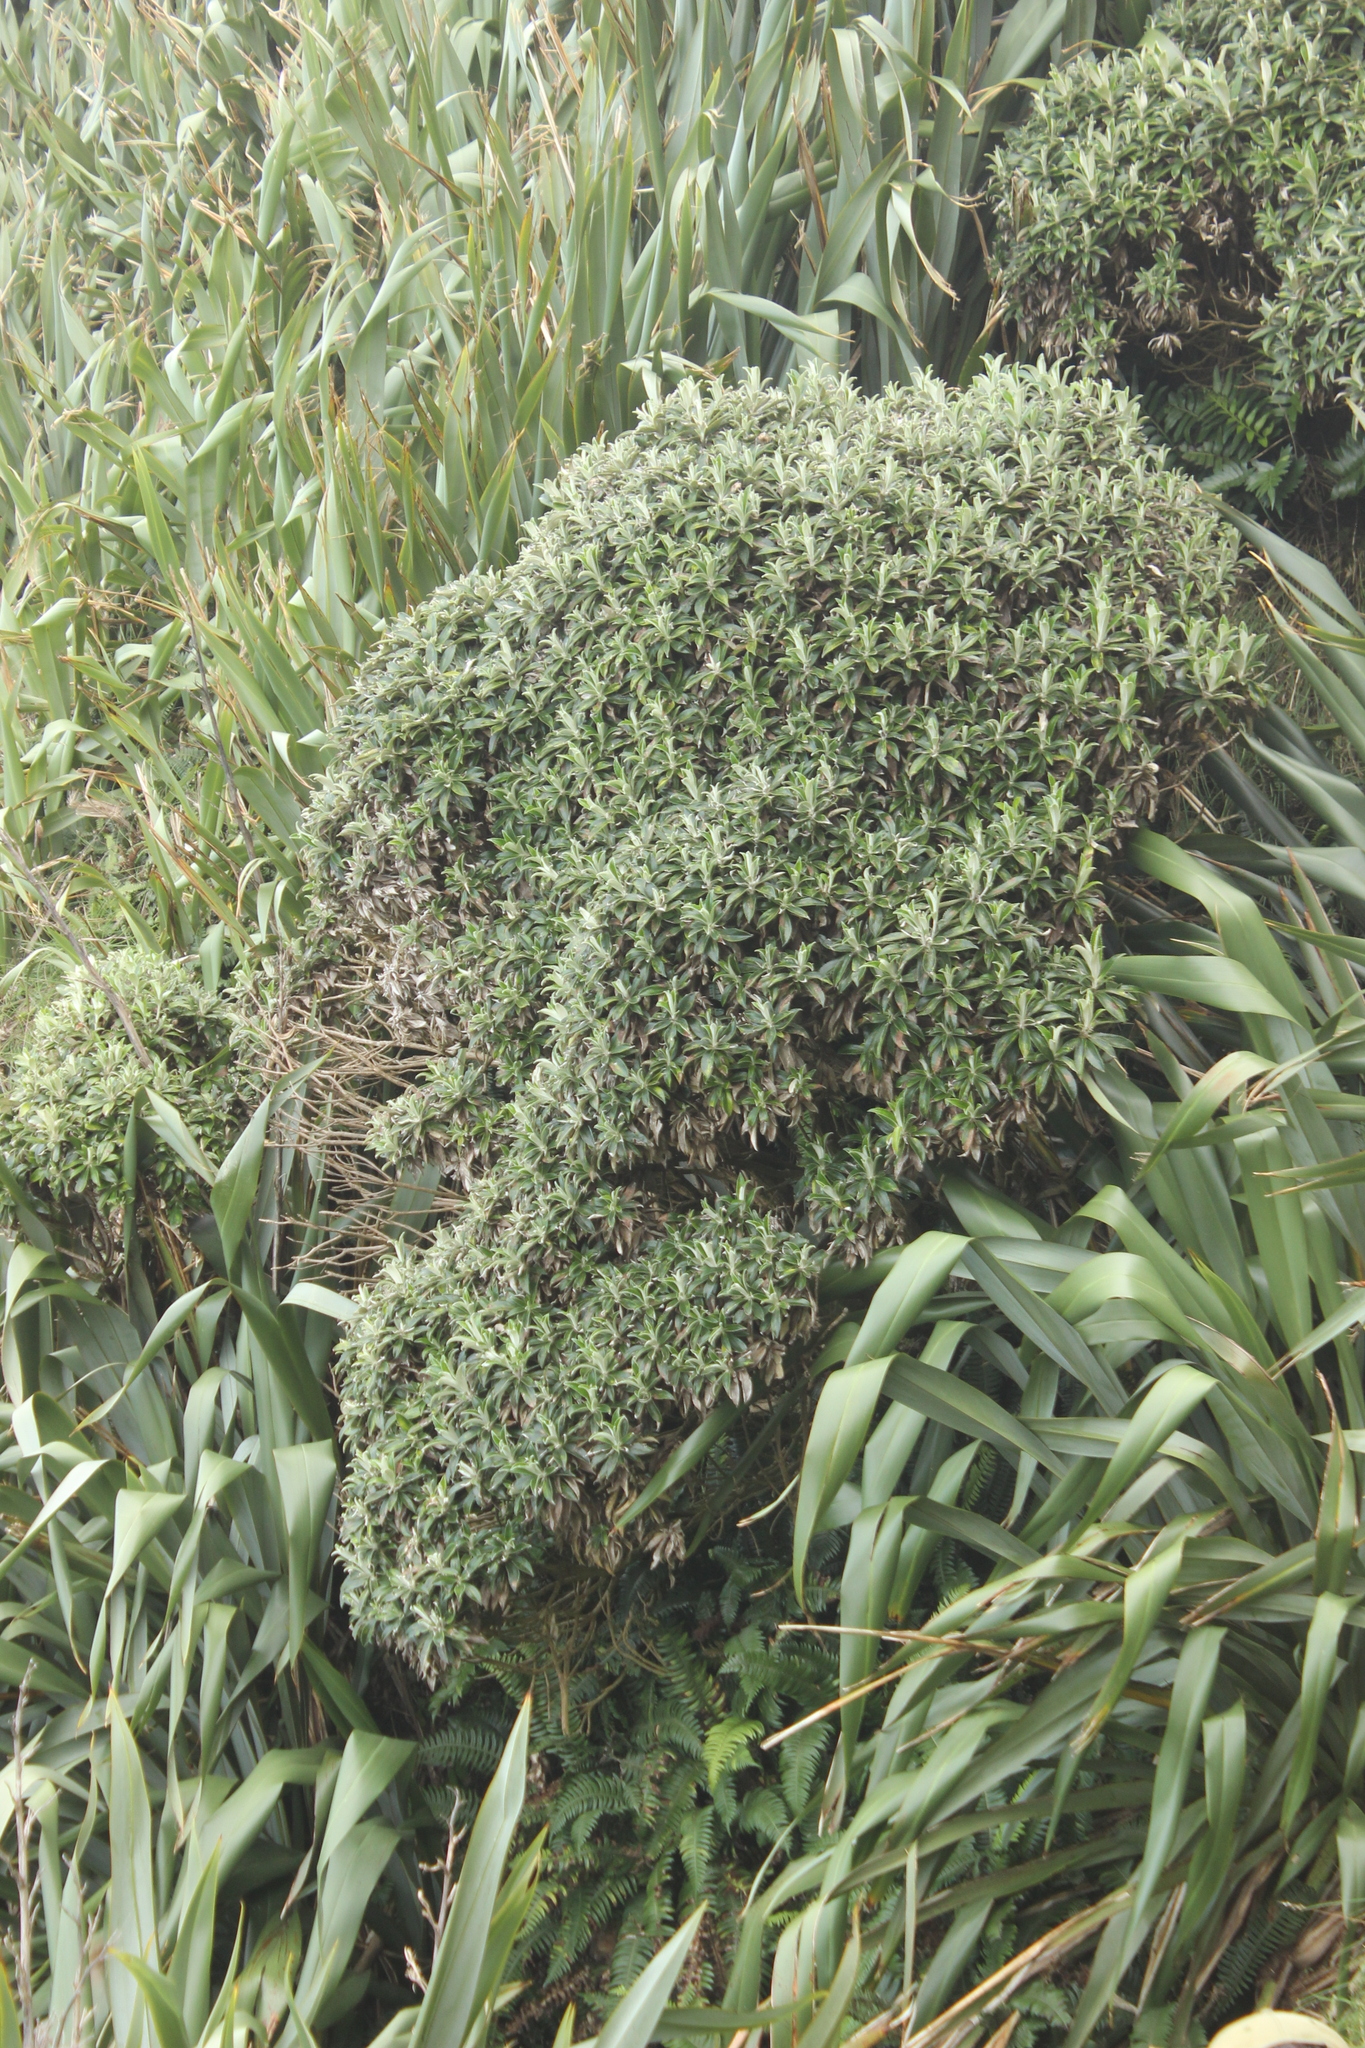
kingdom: Plantae
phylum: Tracheophyta
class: Magnoliopsida
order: Asterales
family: Asteraceae
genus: Macrolearia
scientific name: Macrolearia chathamica
